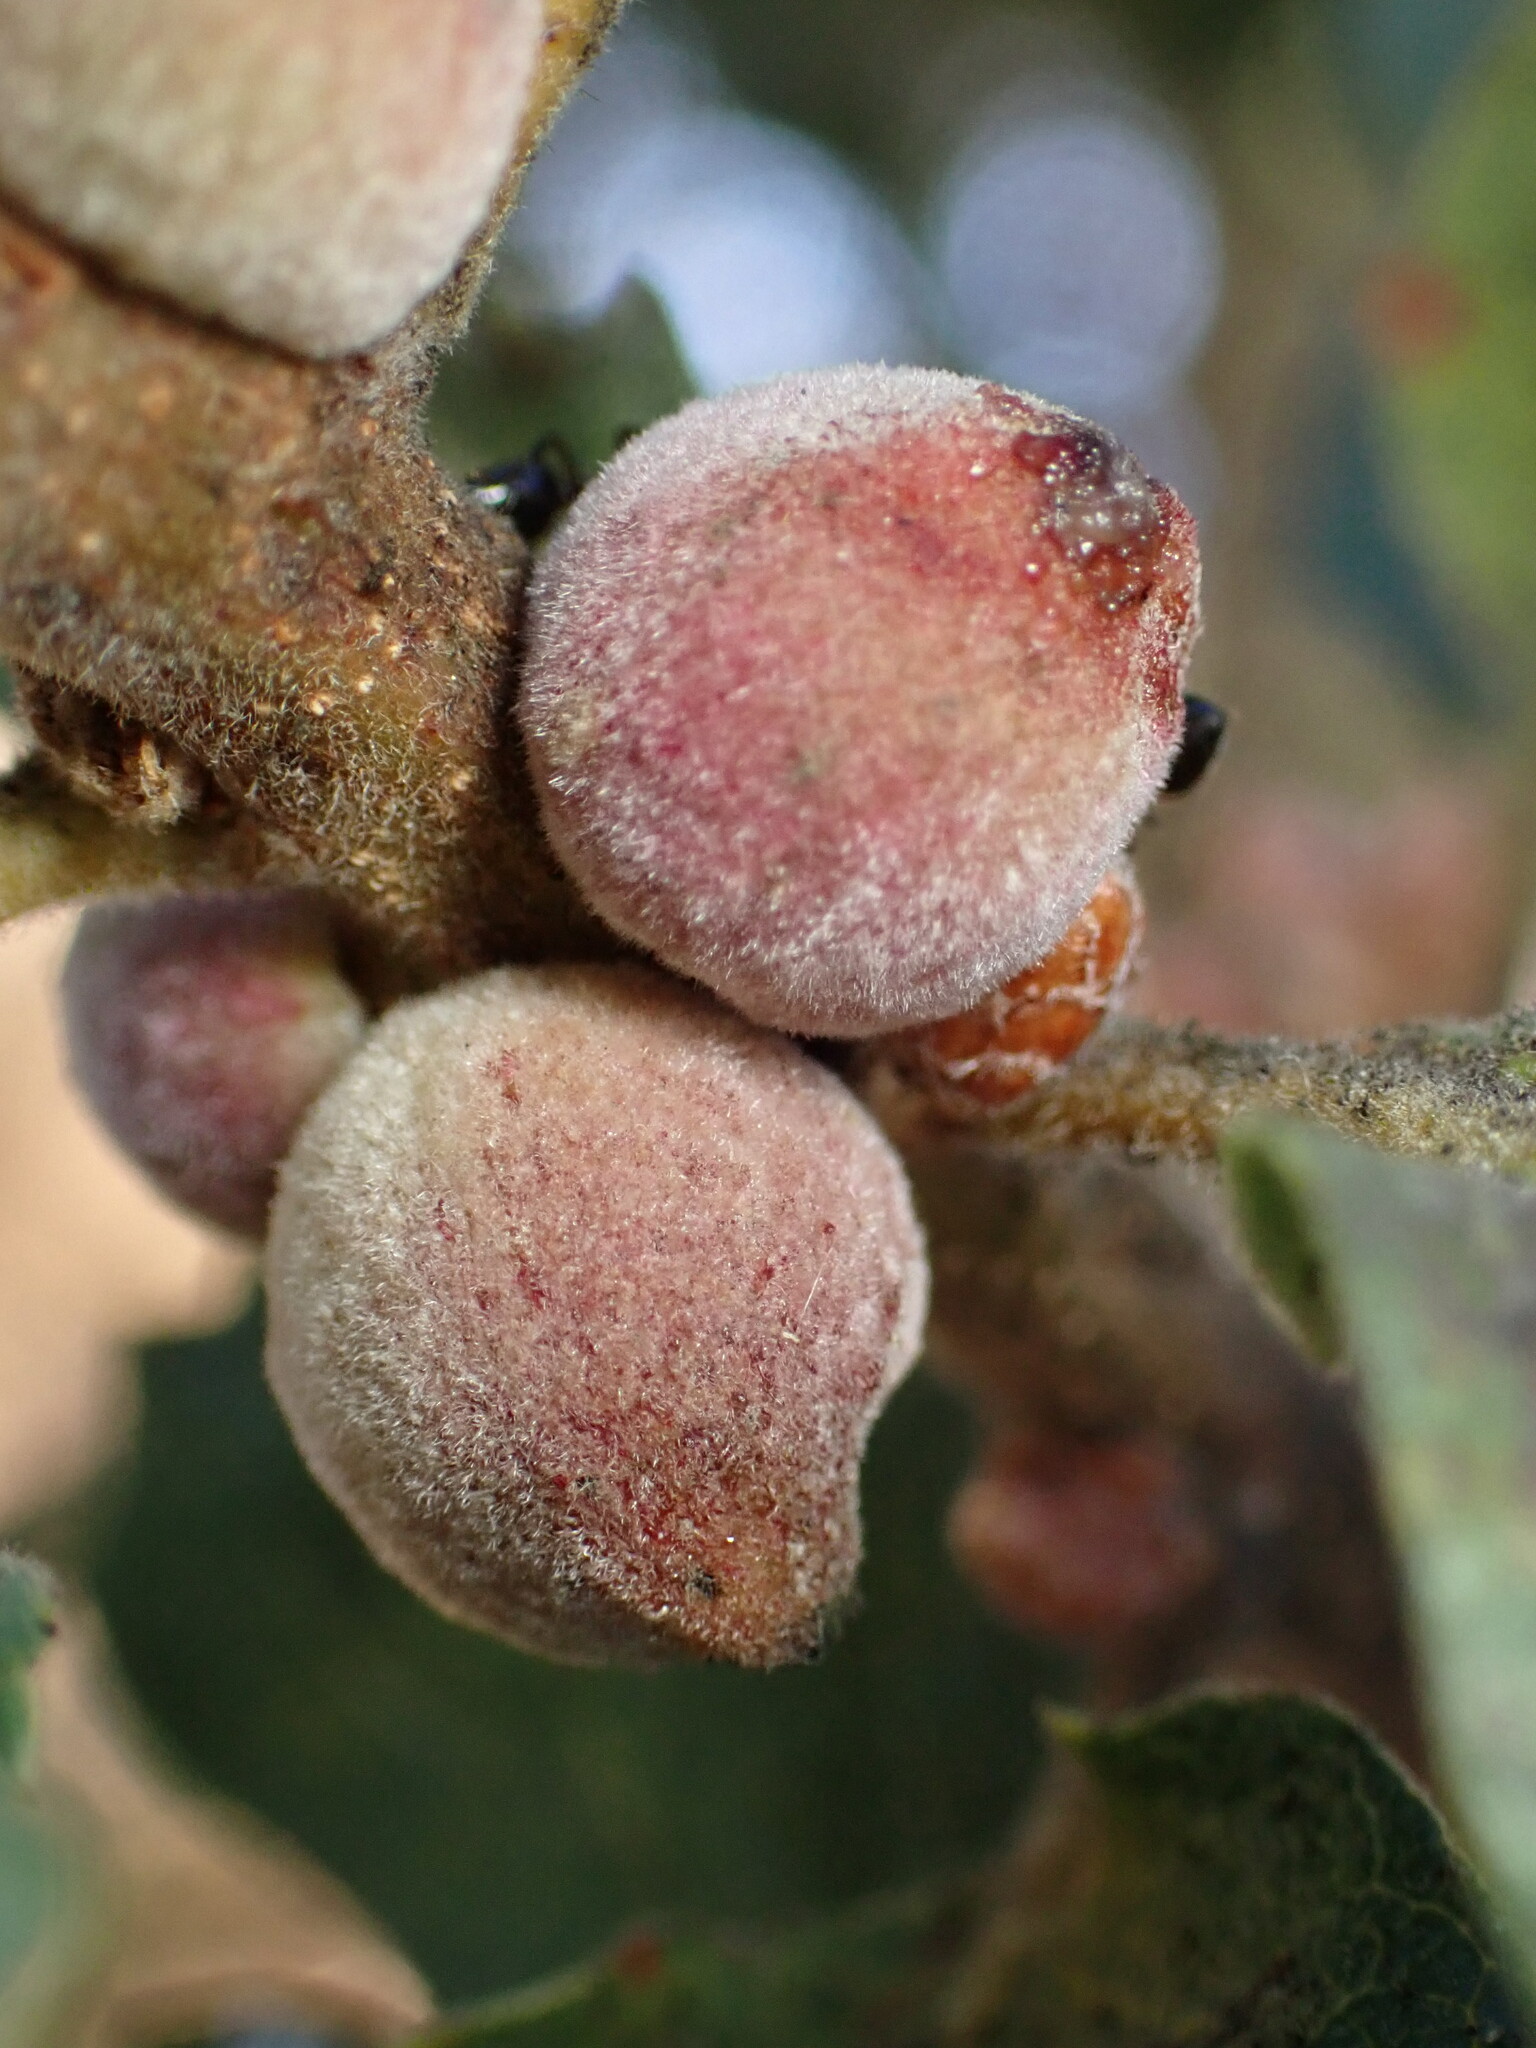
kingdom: Animalia
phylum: Arthropoda
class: Insecta
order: Hymenoptera
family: Cynipidae
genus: Disholcaspis
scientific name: Disholcaspis
